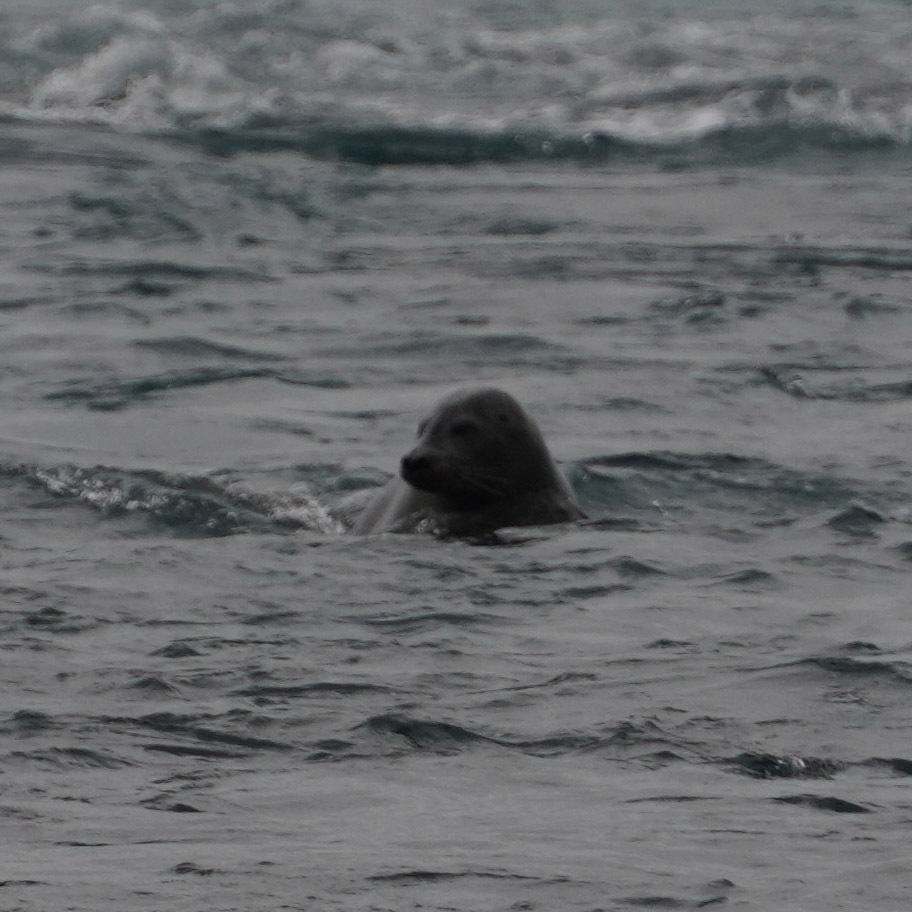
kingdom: Animalia
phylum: Chordata
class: Mammalia
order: Carnivora
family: Phocidae
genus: Phoca
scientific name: Phoca vitulina
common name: Harbor seal
